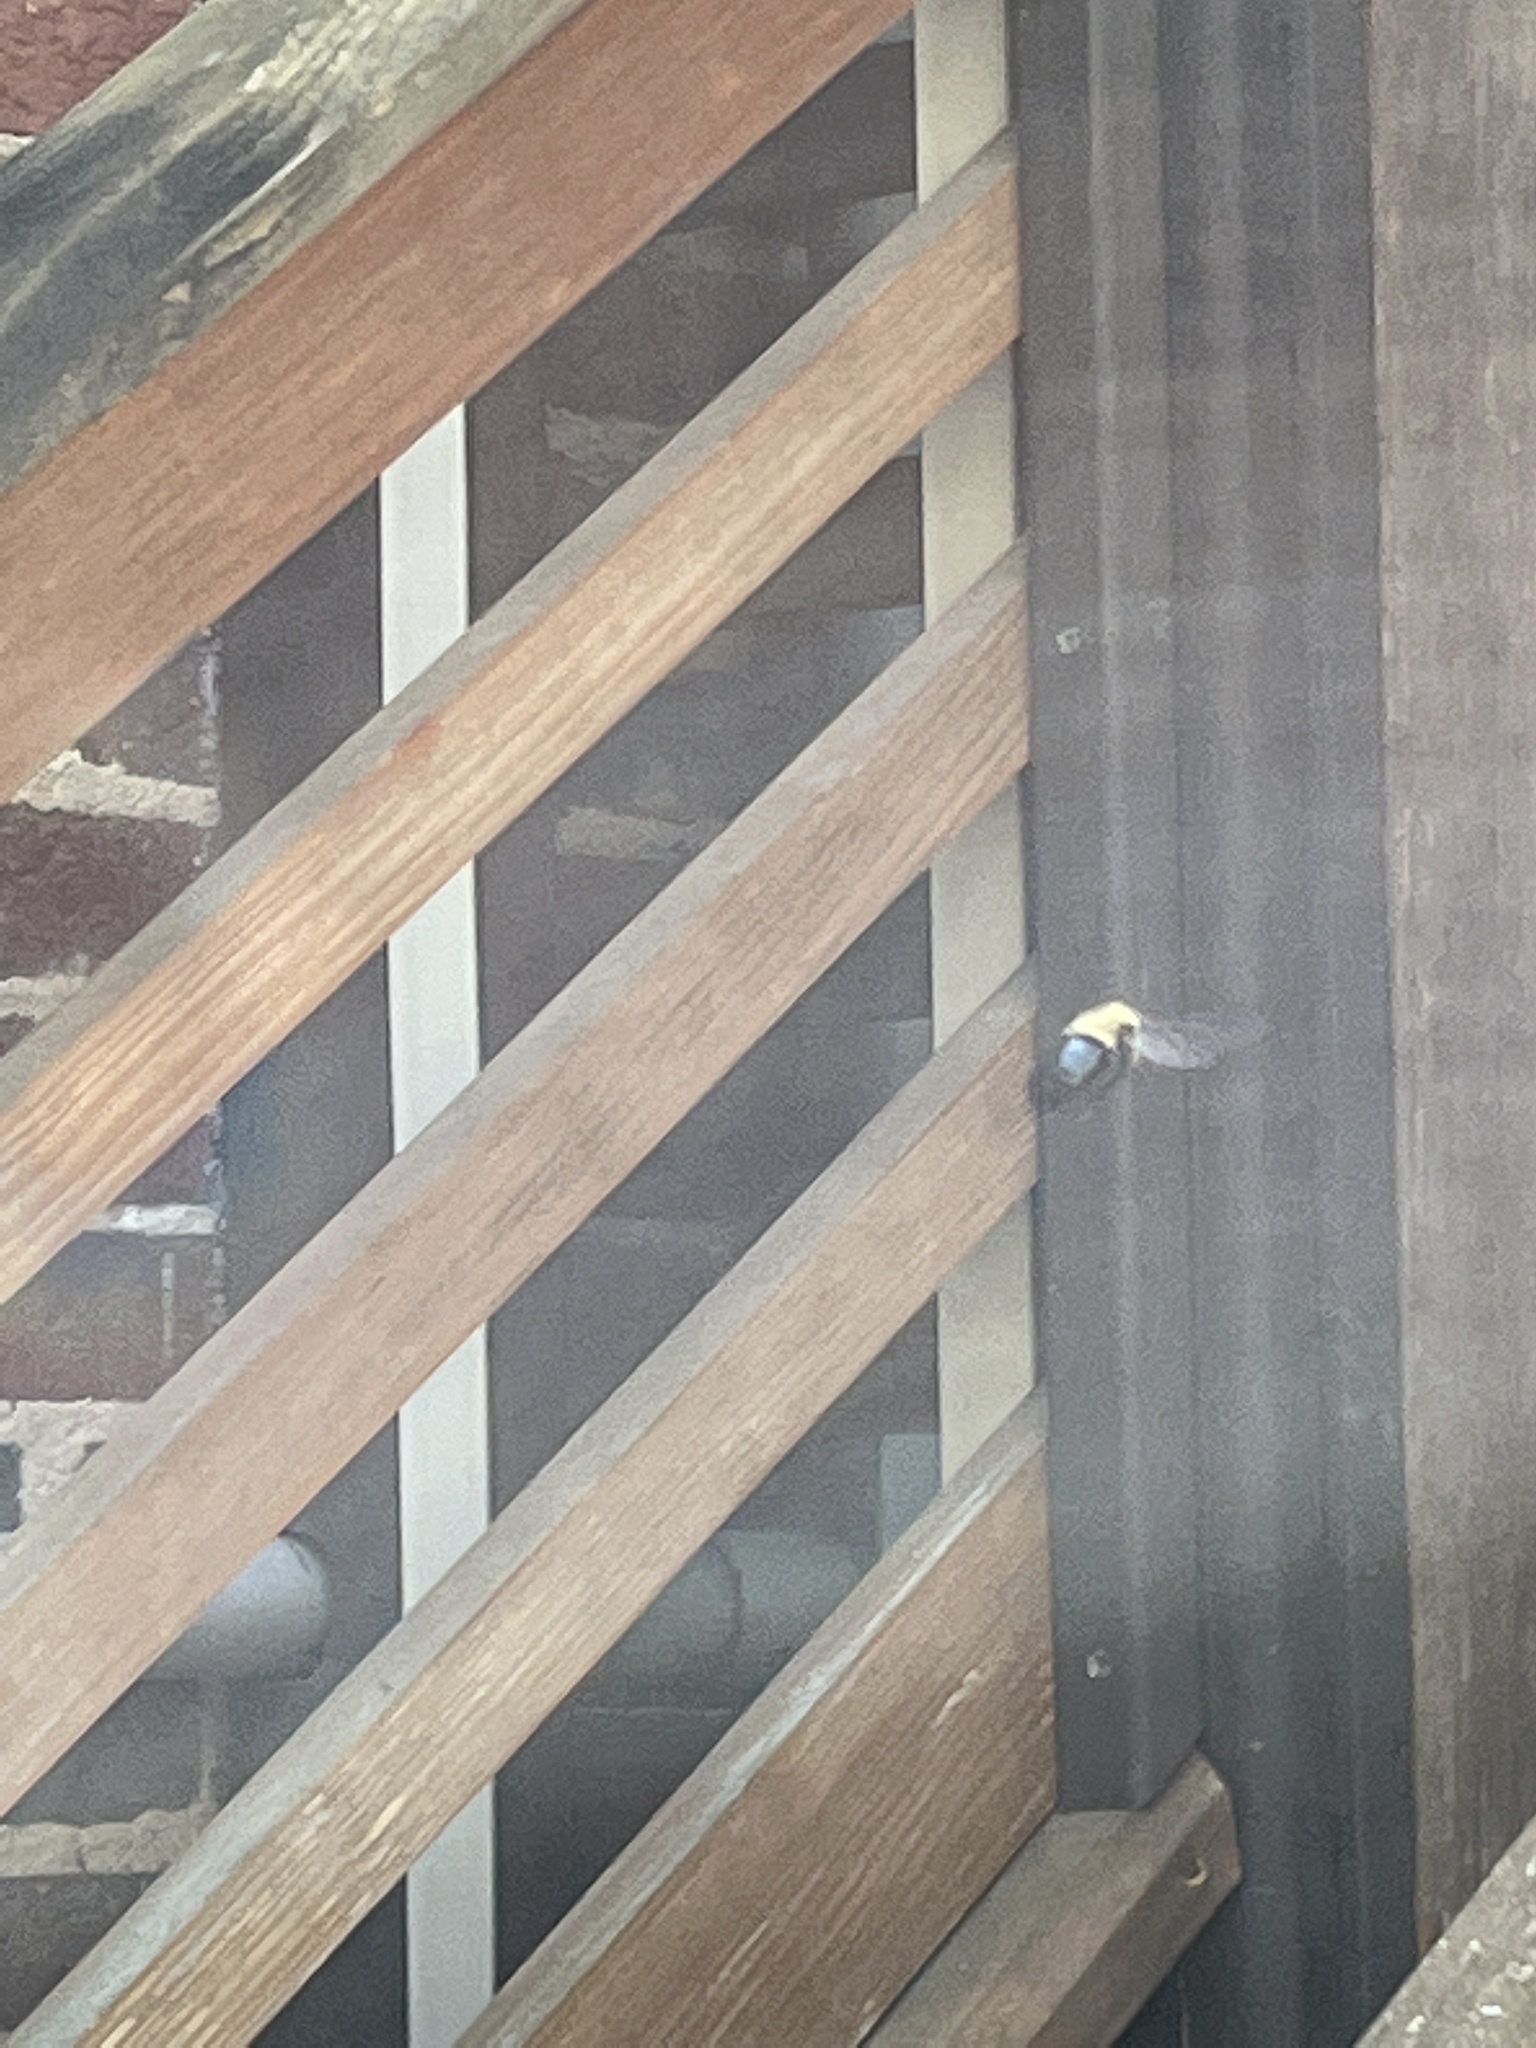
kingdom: Animalia
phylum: Arthropoda
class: Insecta
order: Hymenoptera
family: Apidae
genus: Xylocopa
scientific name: Xylocopa virginica
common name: Carpenter bee
